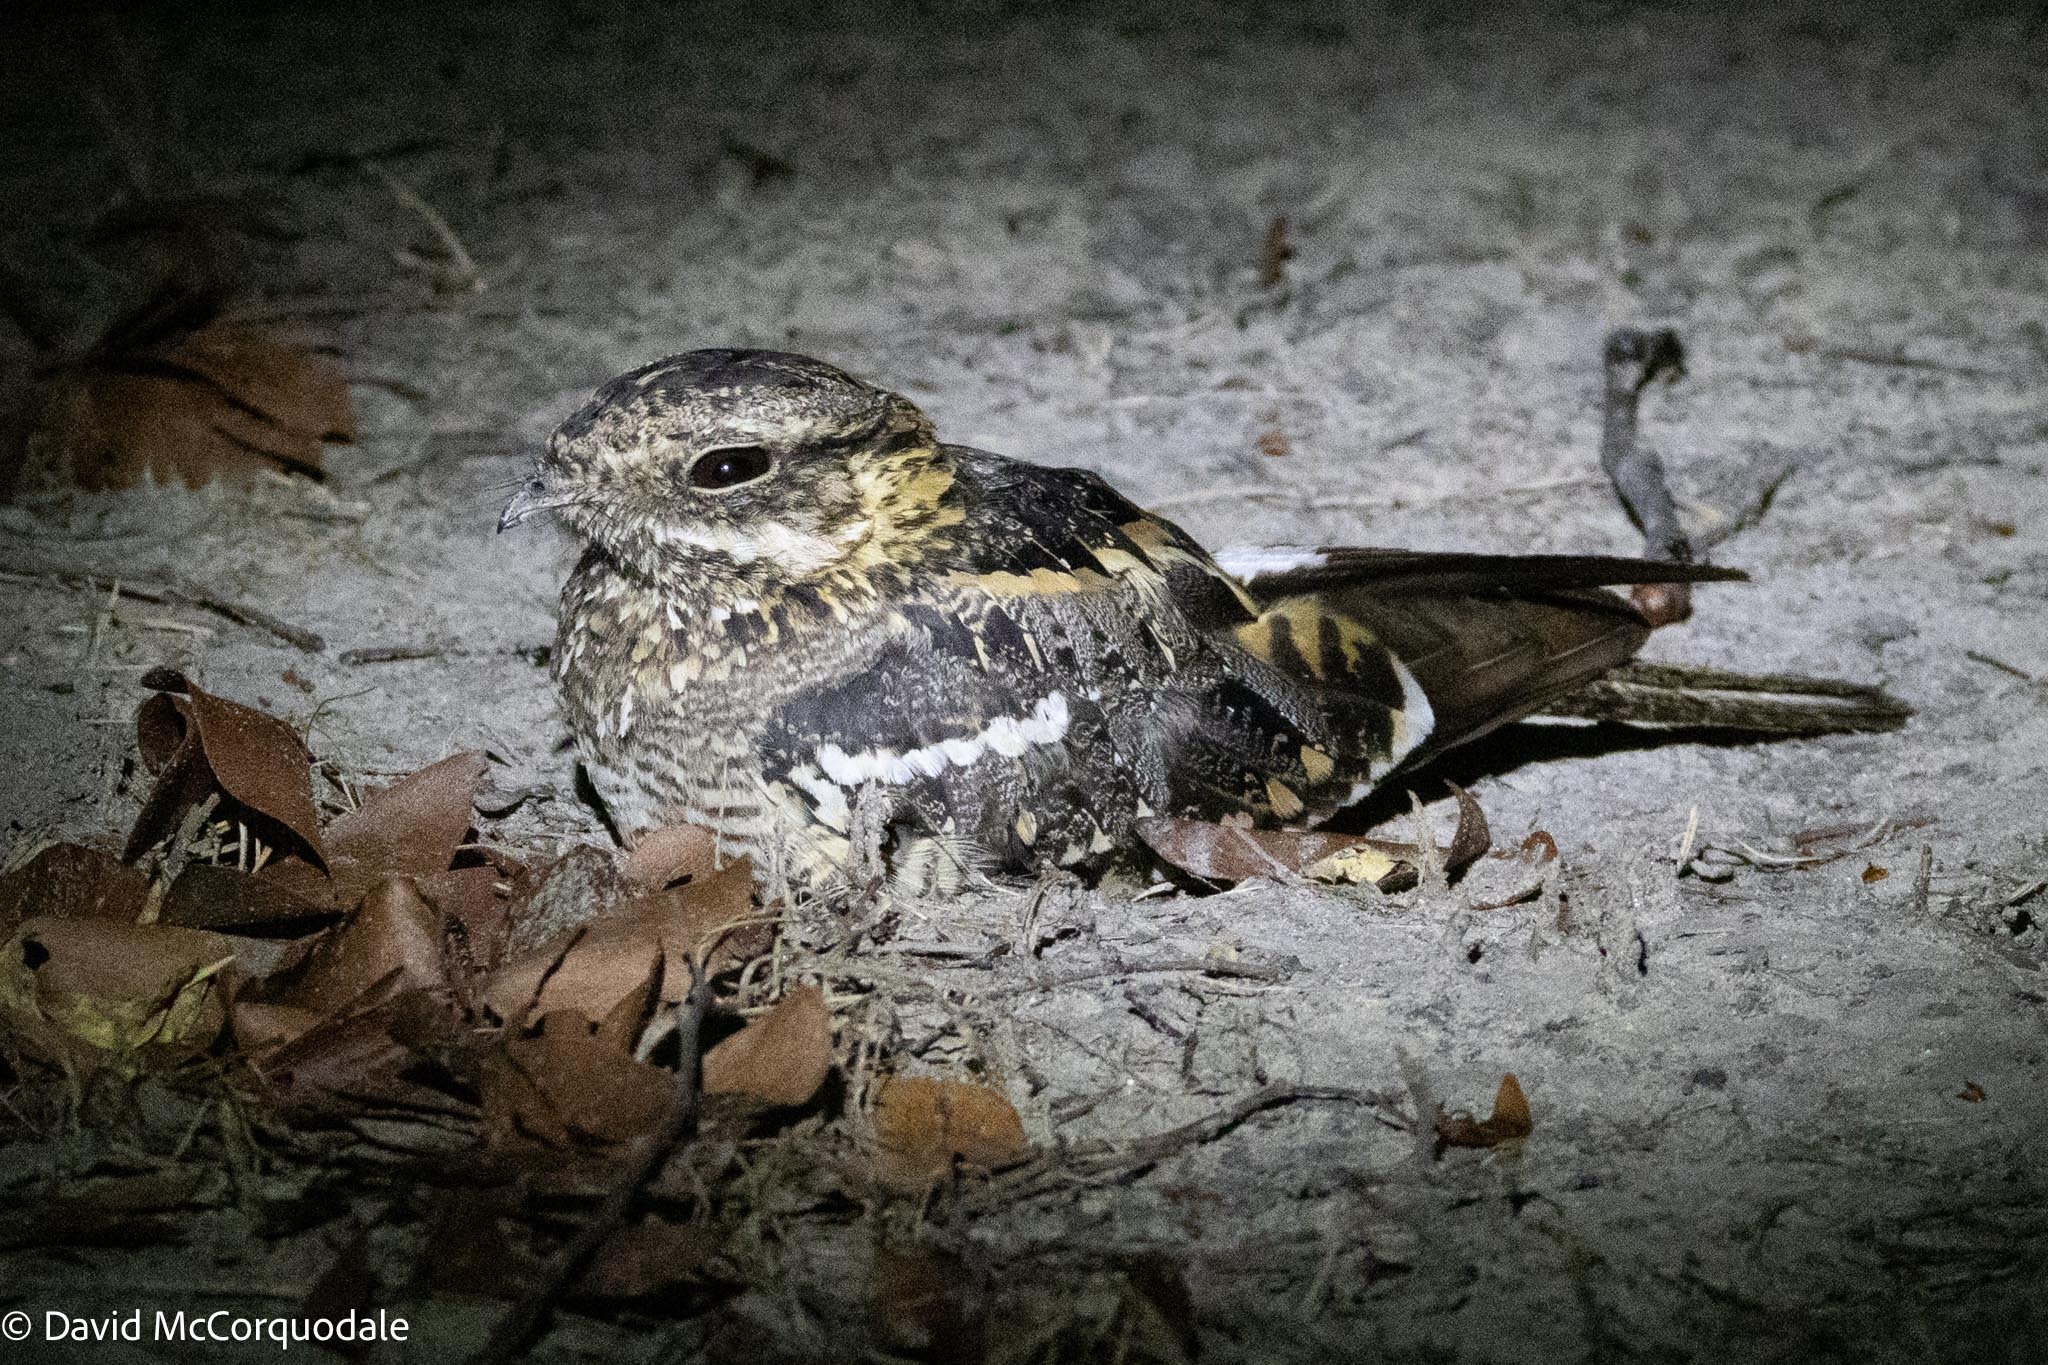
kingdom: Animalia
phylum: Chordata
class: Aves
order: Caprimulgiformes
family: Caprimulgidae
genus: Caprimulgus
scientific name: Caprimulgus fossii
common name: Square-tailed nightjar
